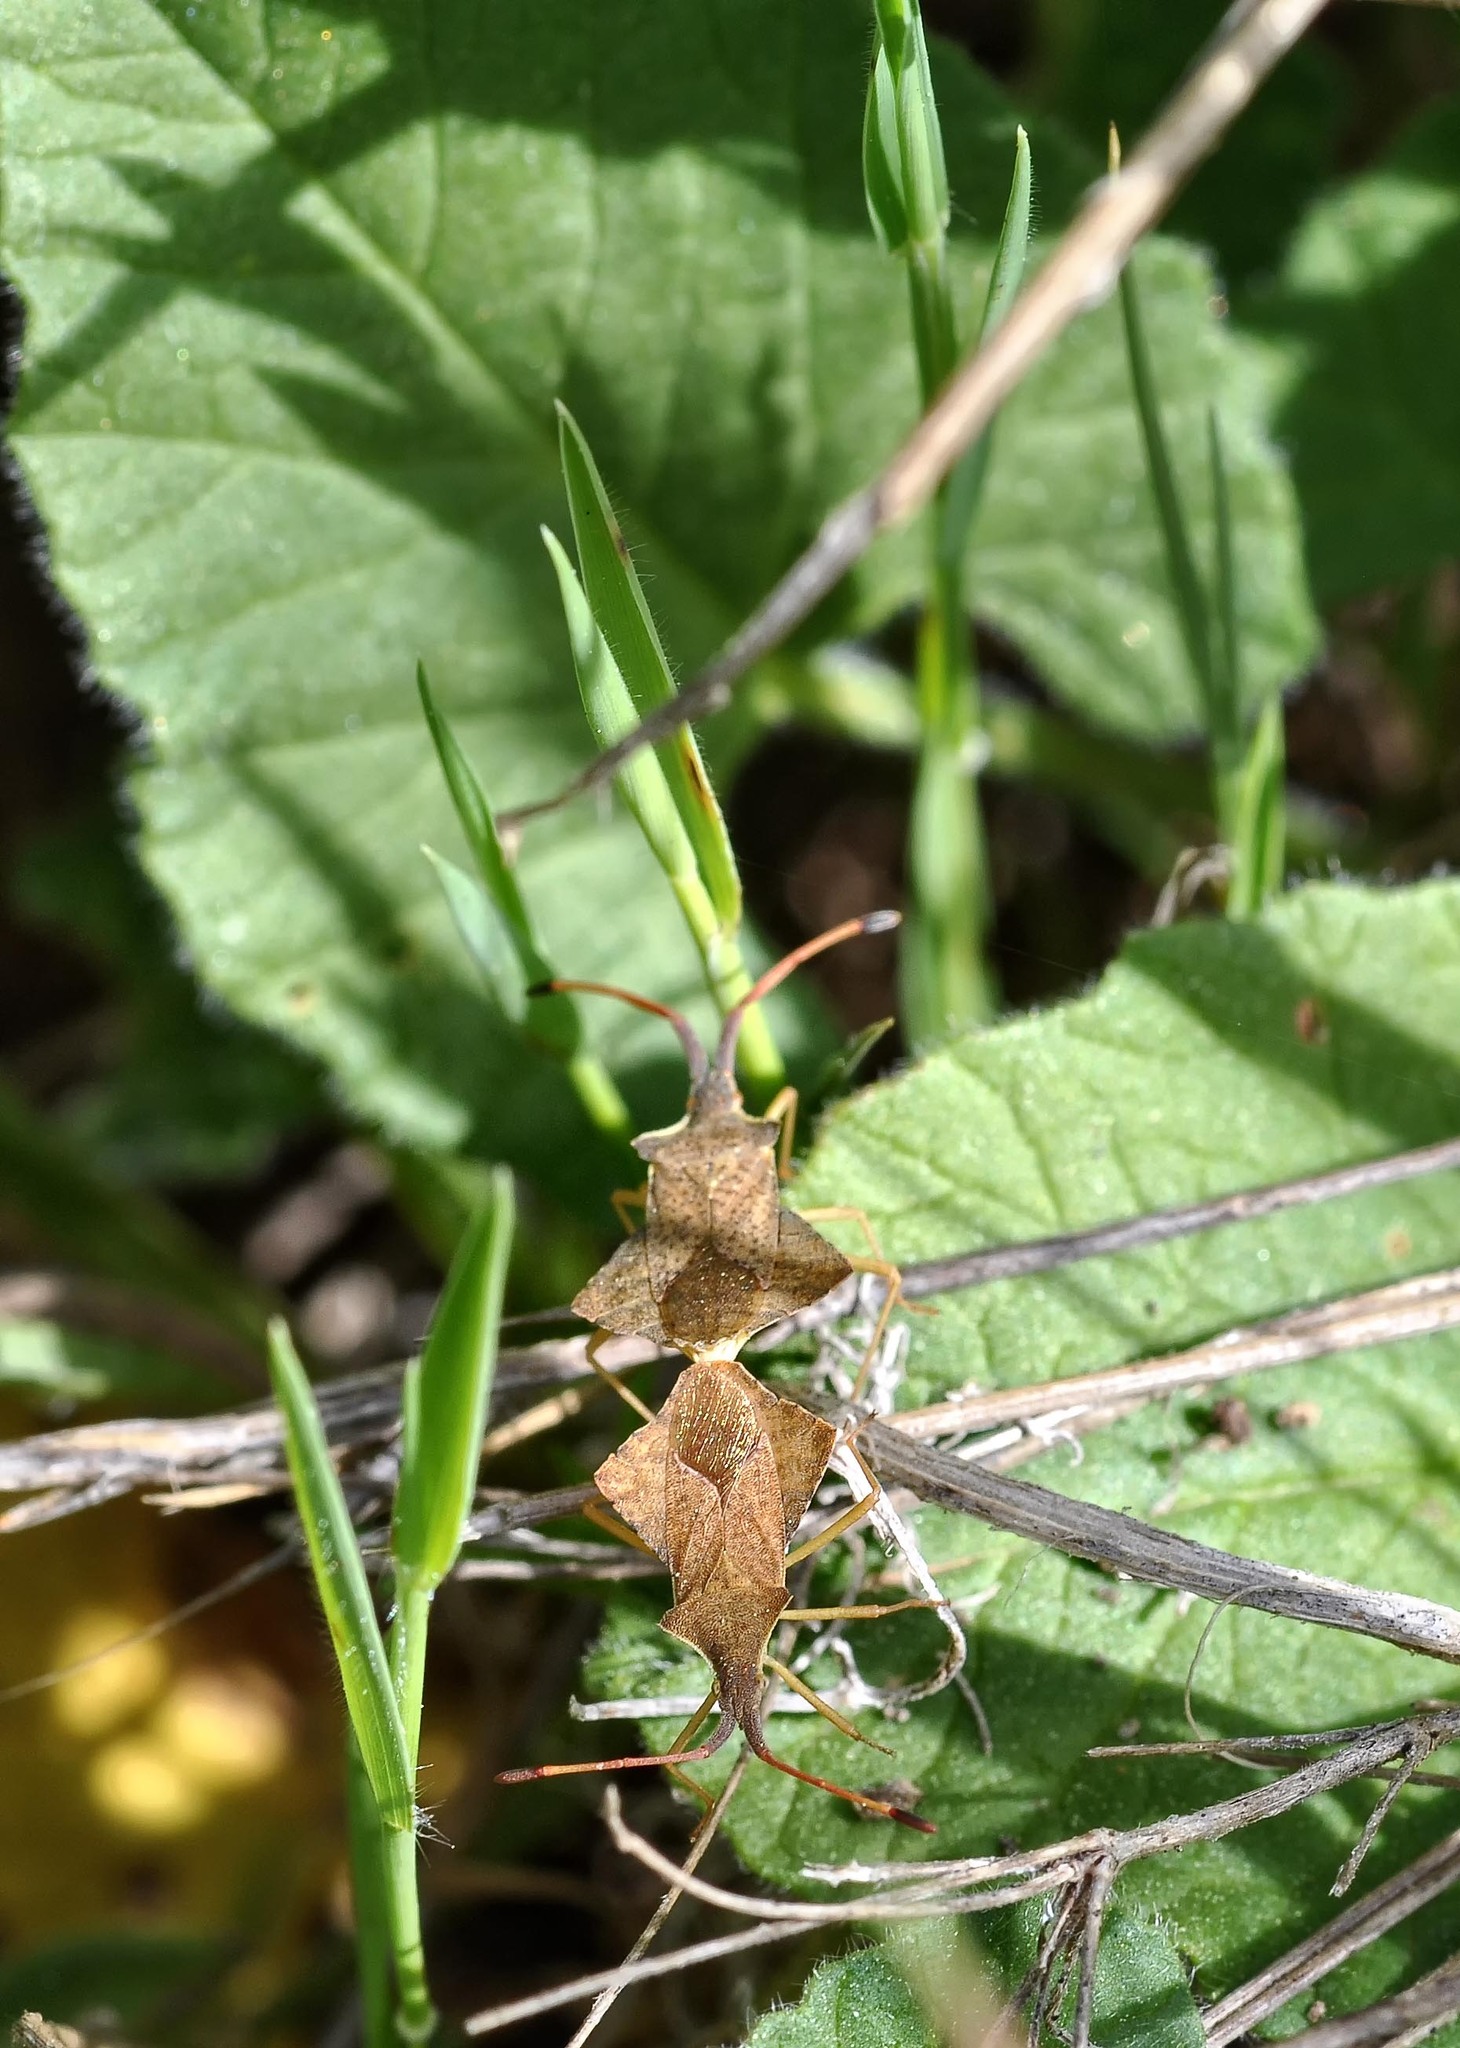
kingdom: Animalia
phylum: Arthropoda
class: Insecta
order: Hemiptera
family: Coreidae
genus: Syromastus
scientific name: Syromastus rhombeus
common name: Rhombic leatherbug
